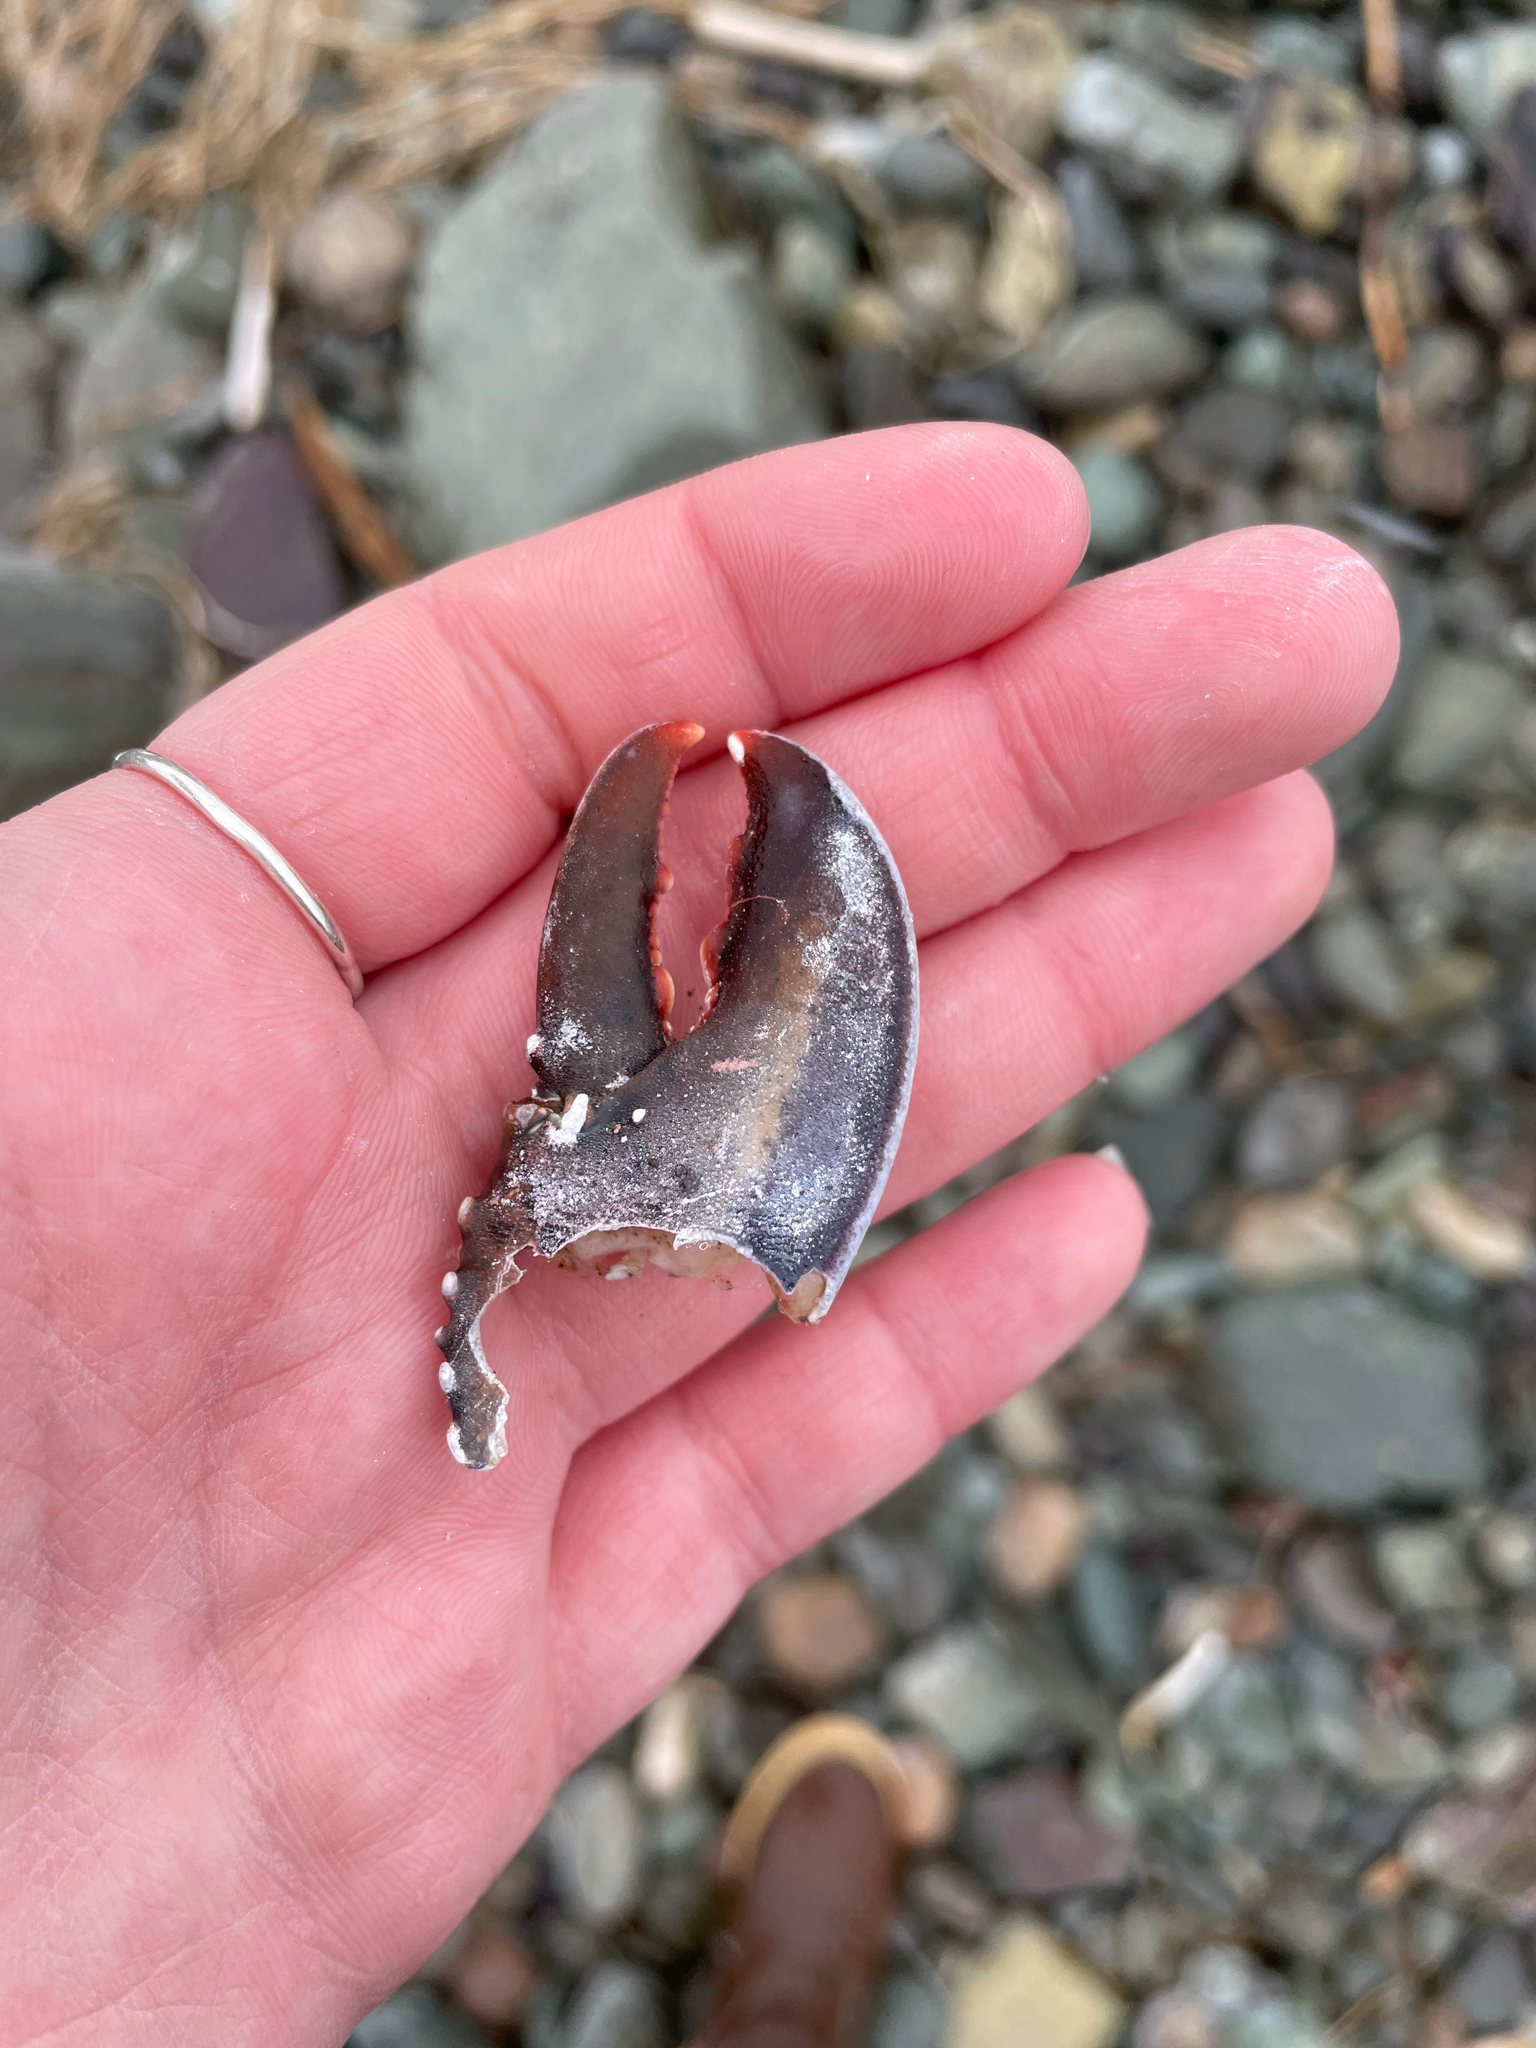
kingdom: Animalia
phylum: Arthropoda
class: Malacostraca
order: Decapoda
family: Nephropidae
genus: Homarus
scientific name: Homarus americanus
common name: American lobster
